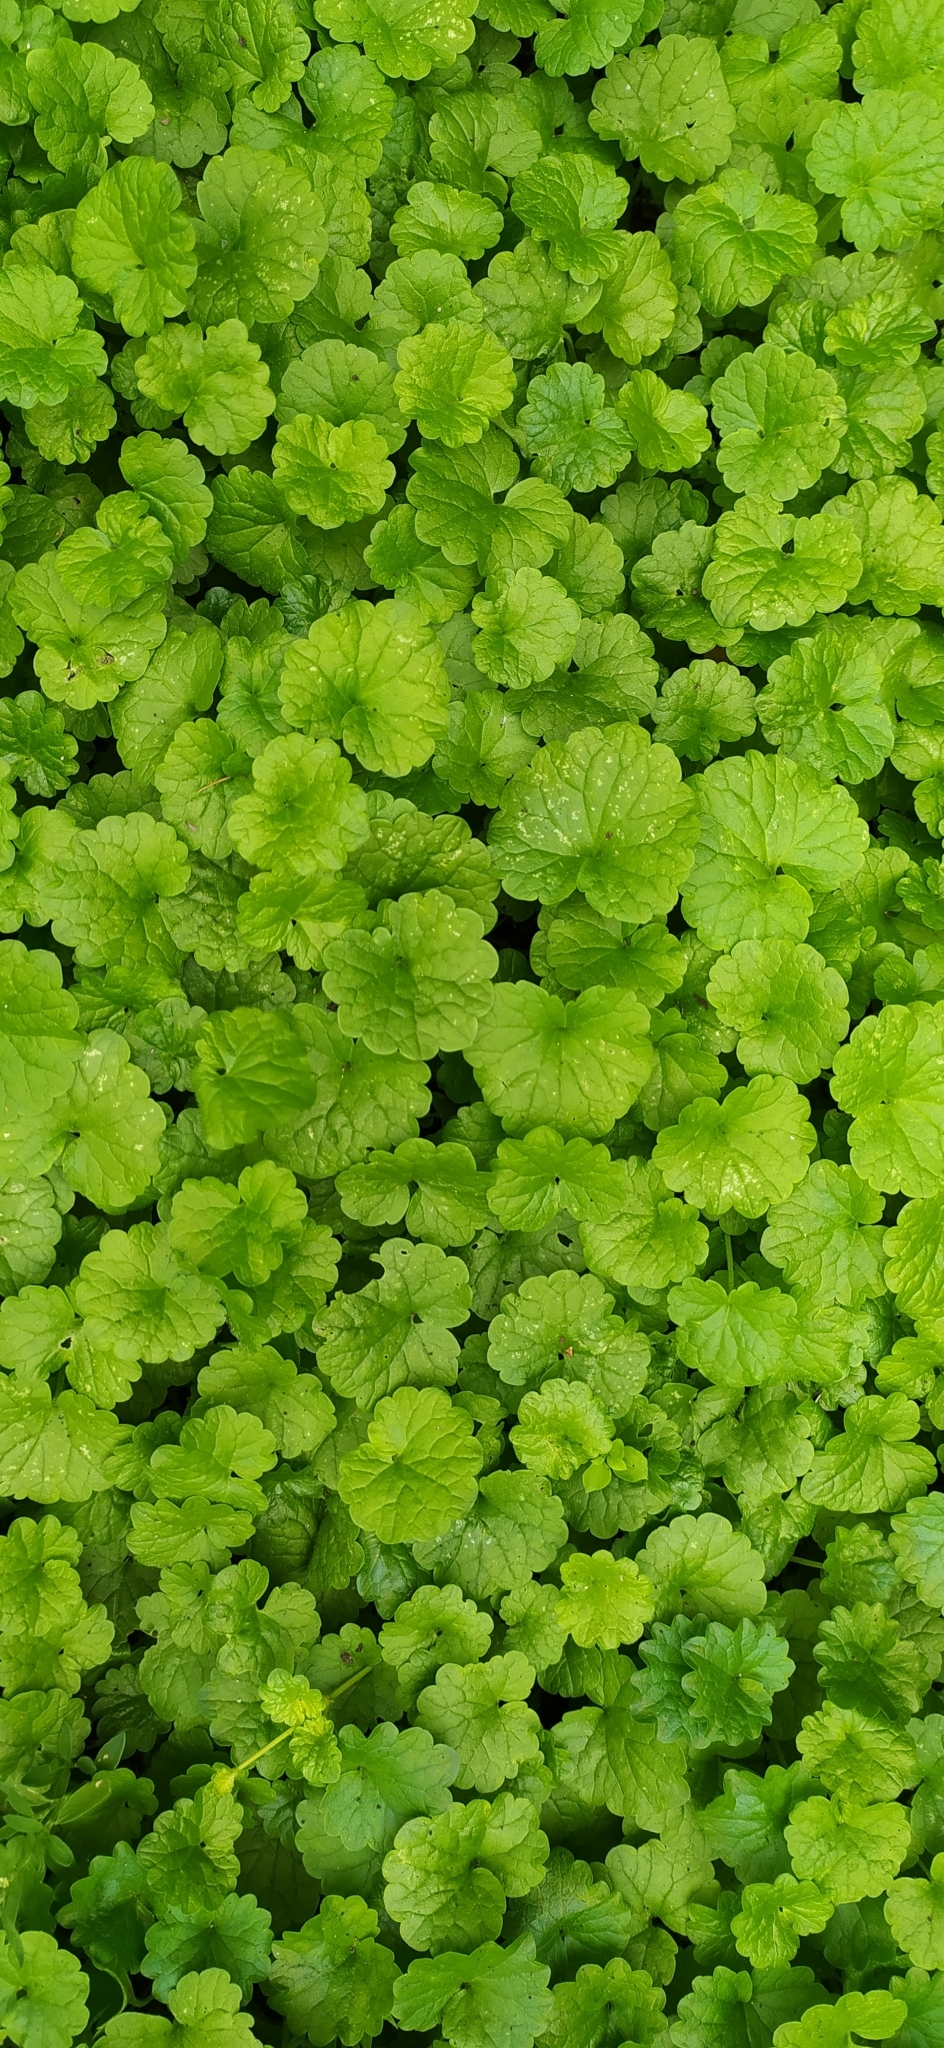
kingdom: Plantae
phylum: Tracheophyta
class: Magnoliopsida
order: Lamiales
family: Lamiaceae
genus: Glechoma
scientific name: Glechoma hederacea
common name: Ground ivy
